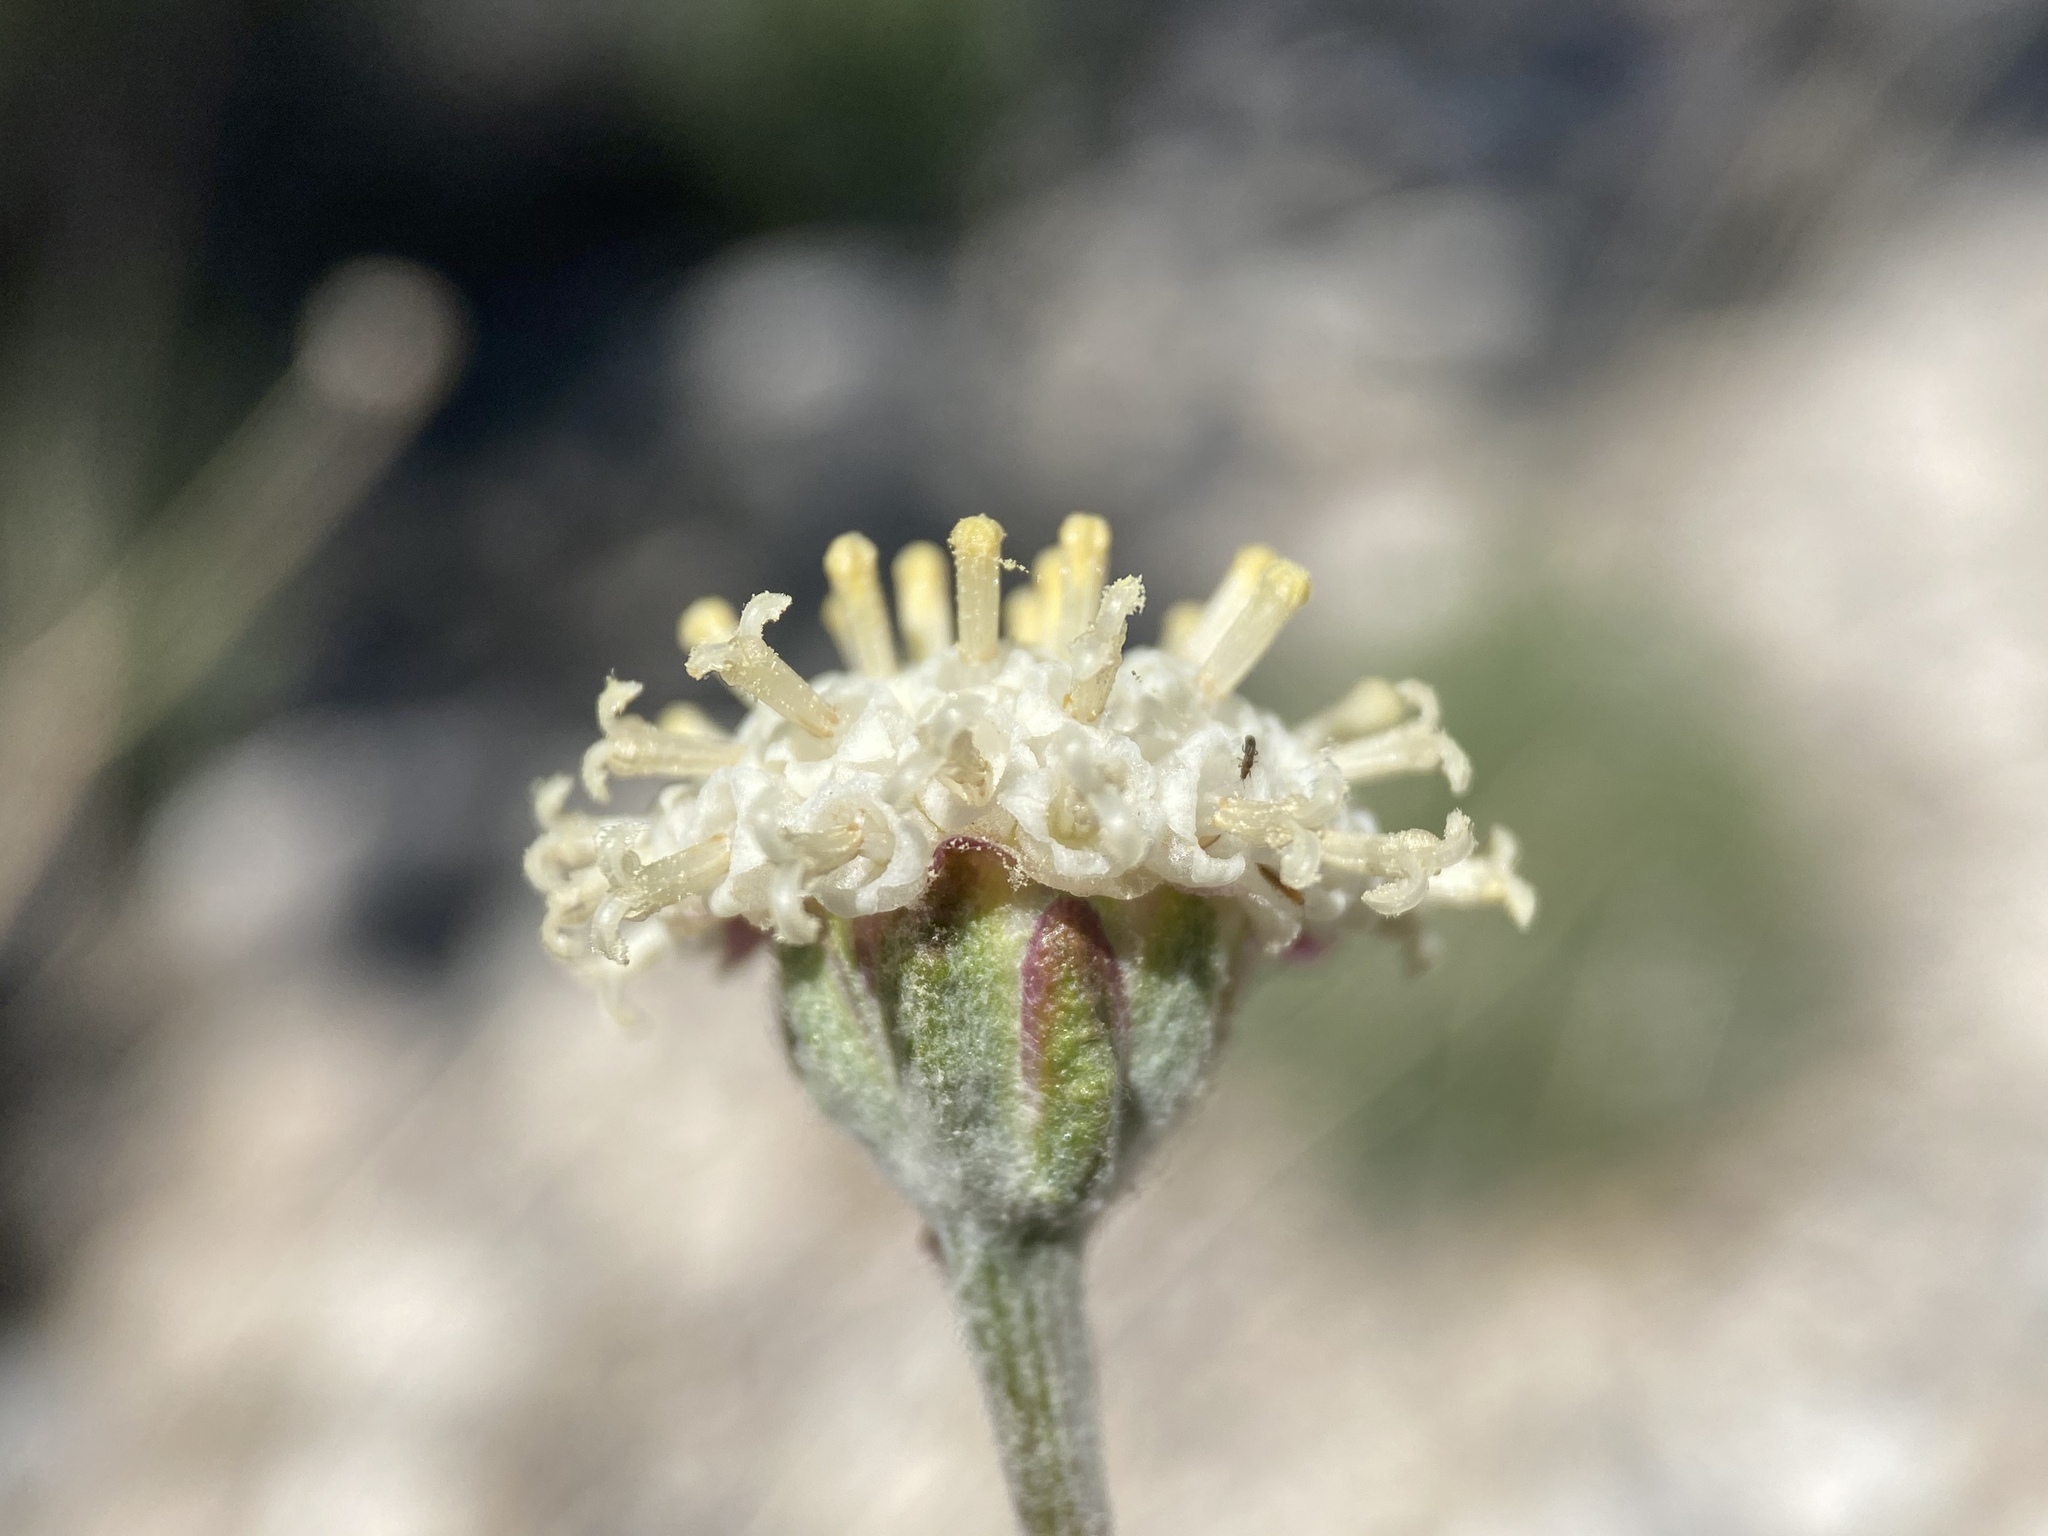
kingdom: Plantae
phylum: Tracheophyta
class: Magnoliopsida
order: Asterales
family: Asteraceae
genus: Hymenopappus
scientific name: Hymenopappus filifolius
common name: Columbia cutleaf
